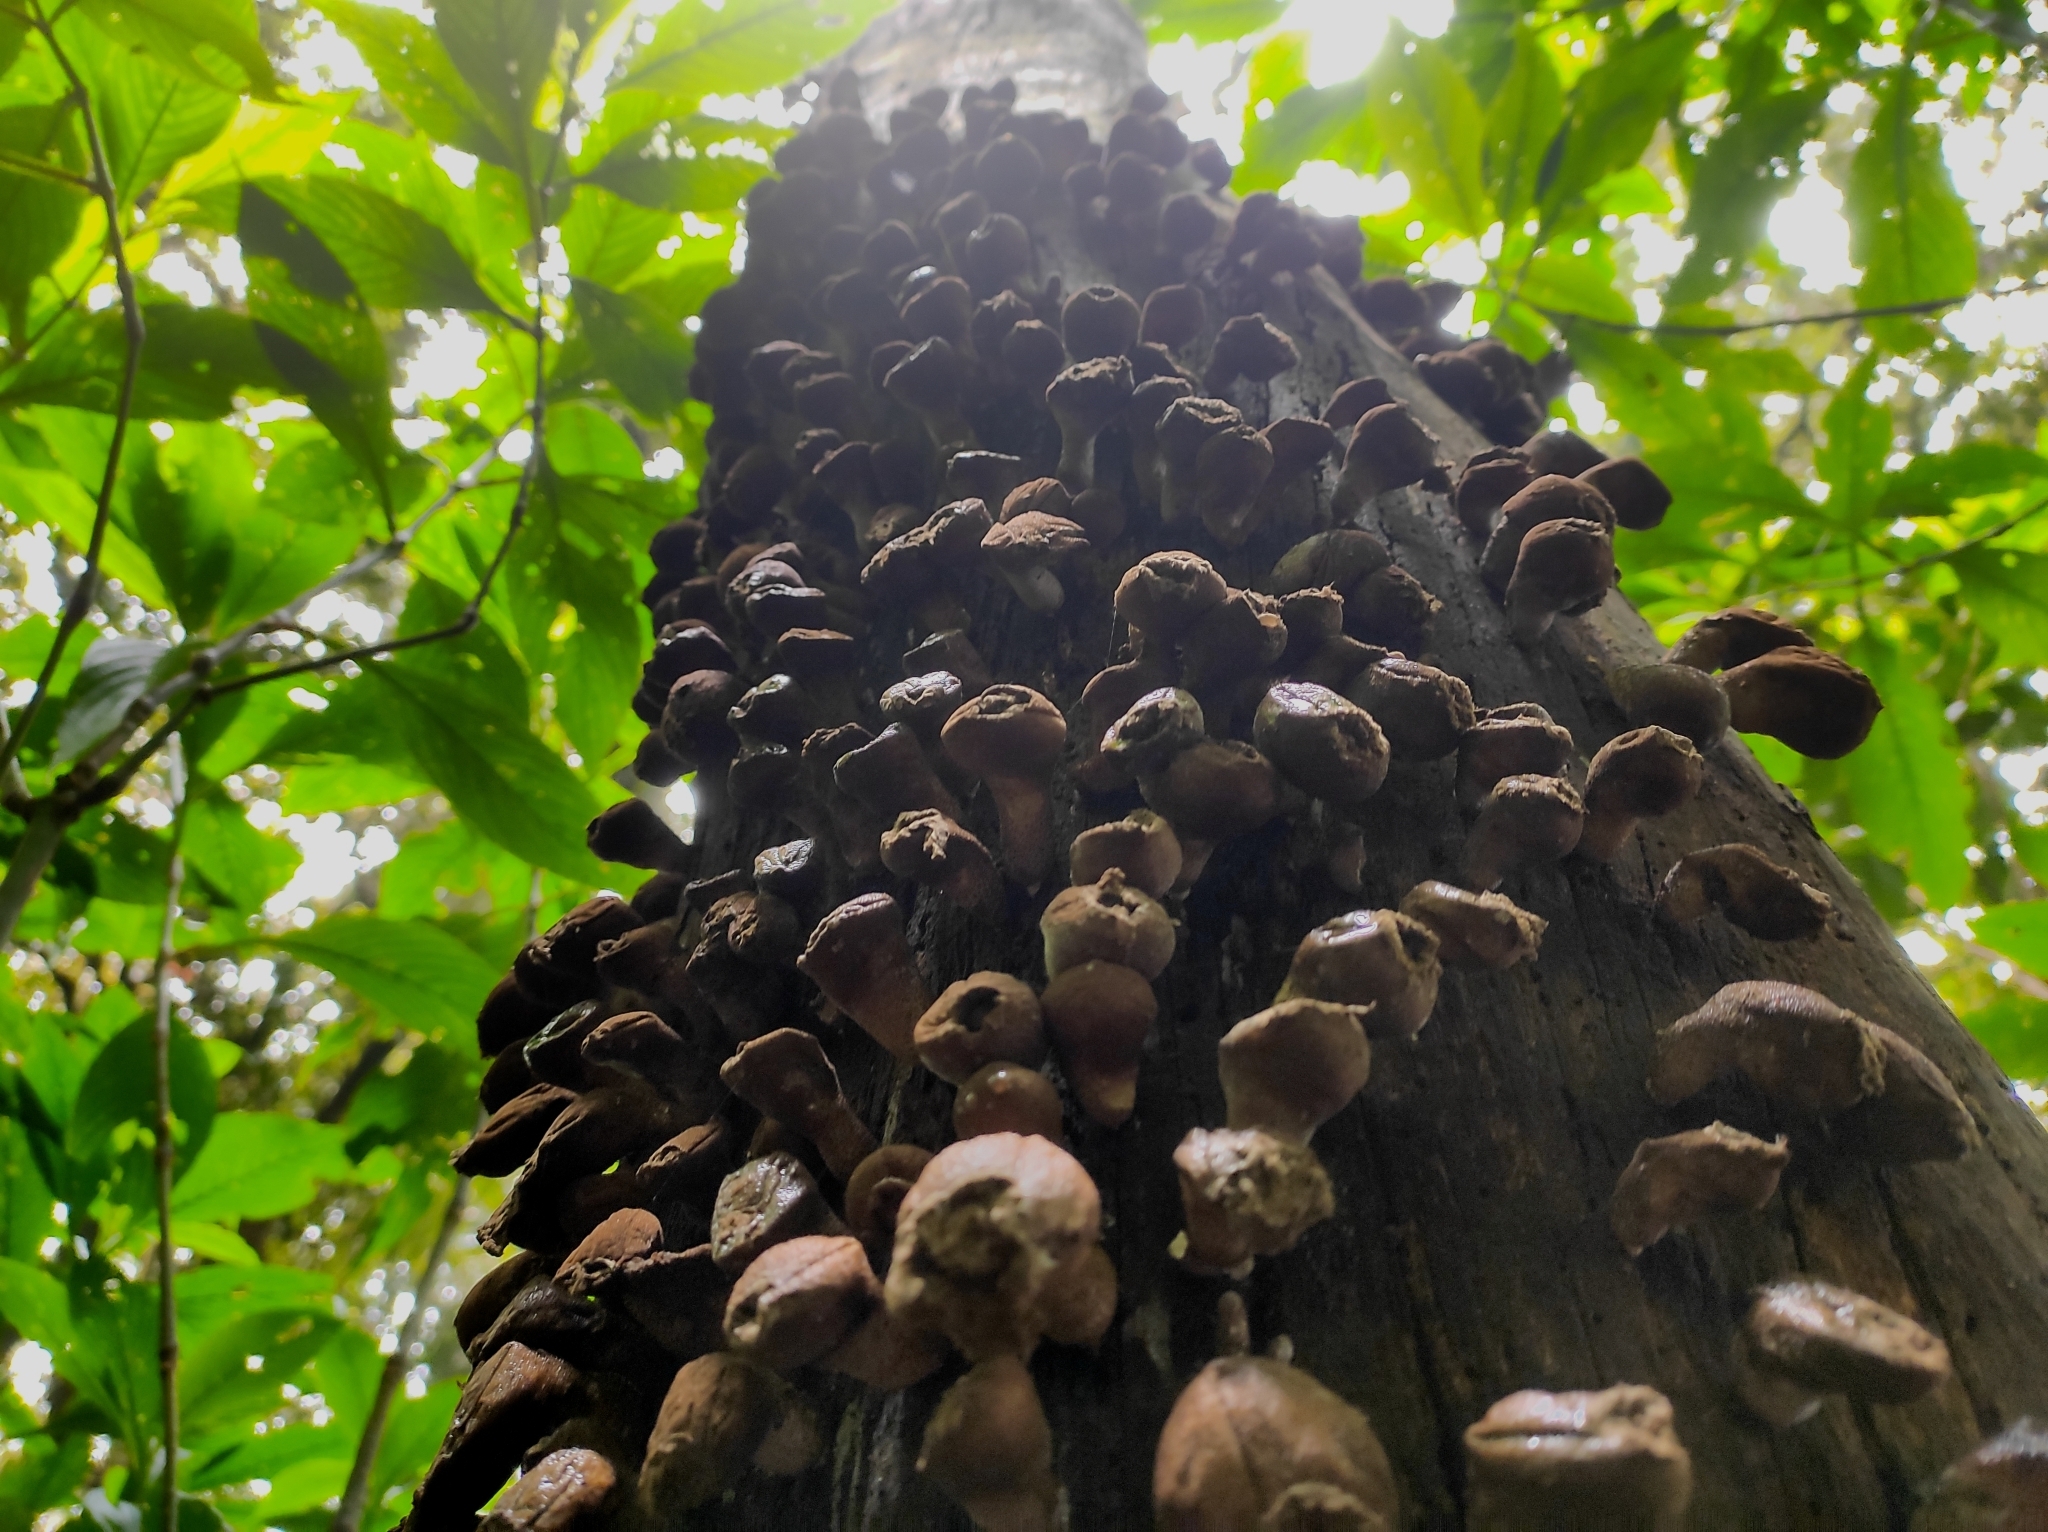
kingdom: Fungi
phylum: Basidiomycota
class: Agaricomycetes
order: Agaricales
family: Lycoperdaceae
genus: Apioperdon
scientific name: Apioperdon pyriforme
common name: Pear-shaped puffball
